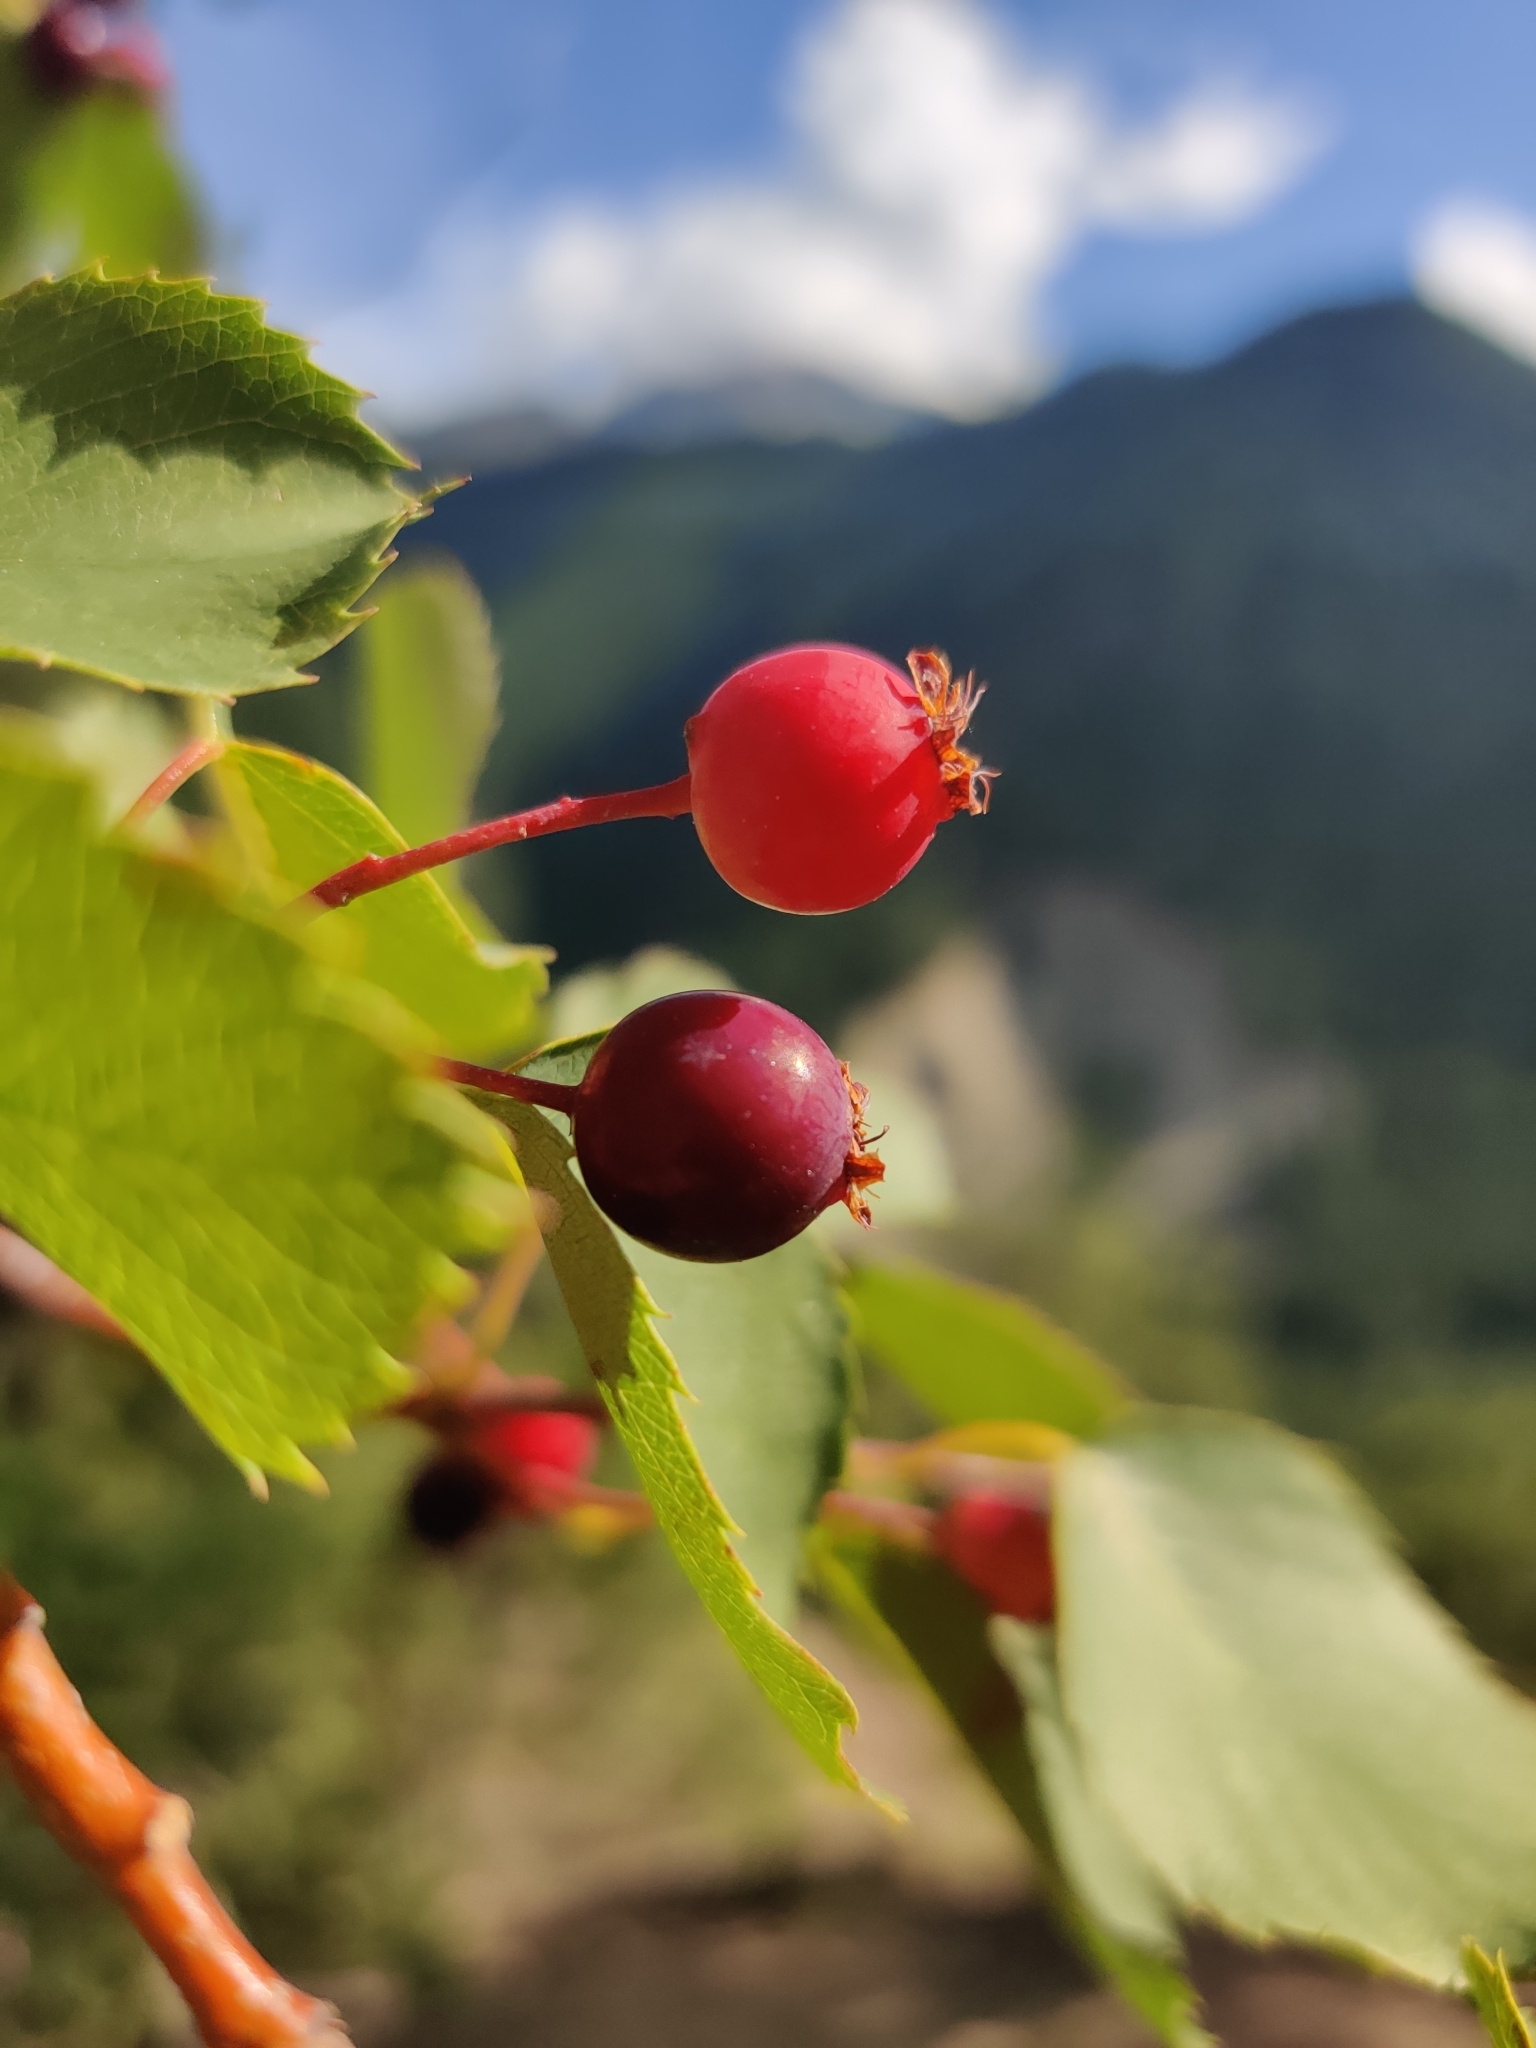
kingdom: Plantae
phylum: Tracheophyta
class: Magnoliopsida
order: Rosales
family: Rosaceae
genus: Amelanchier
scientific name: Amelanchier alnifolia
